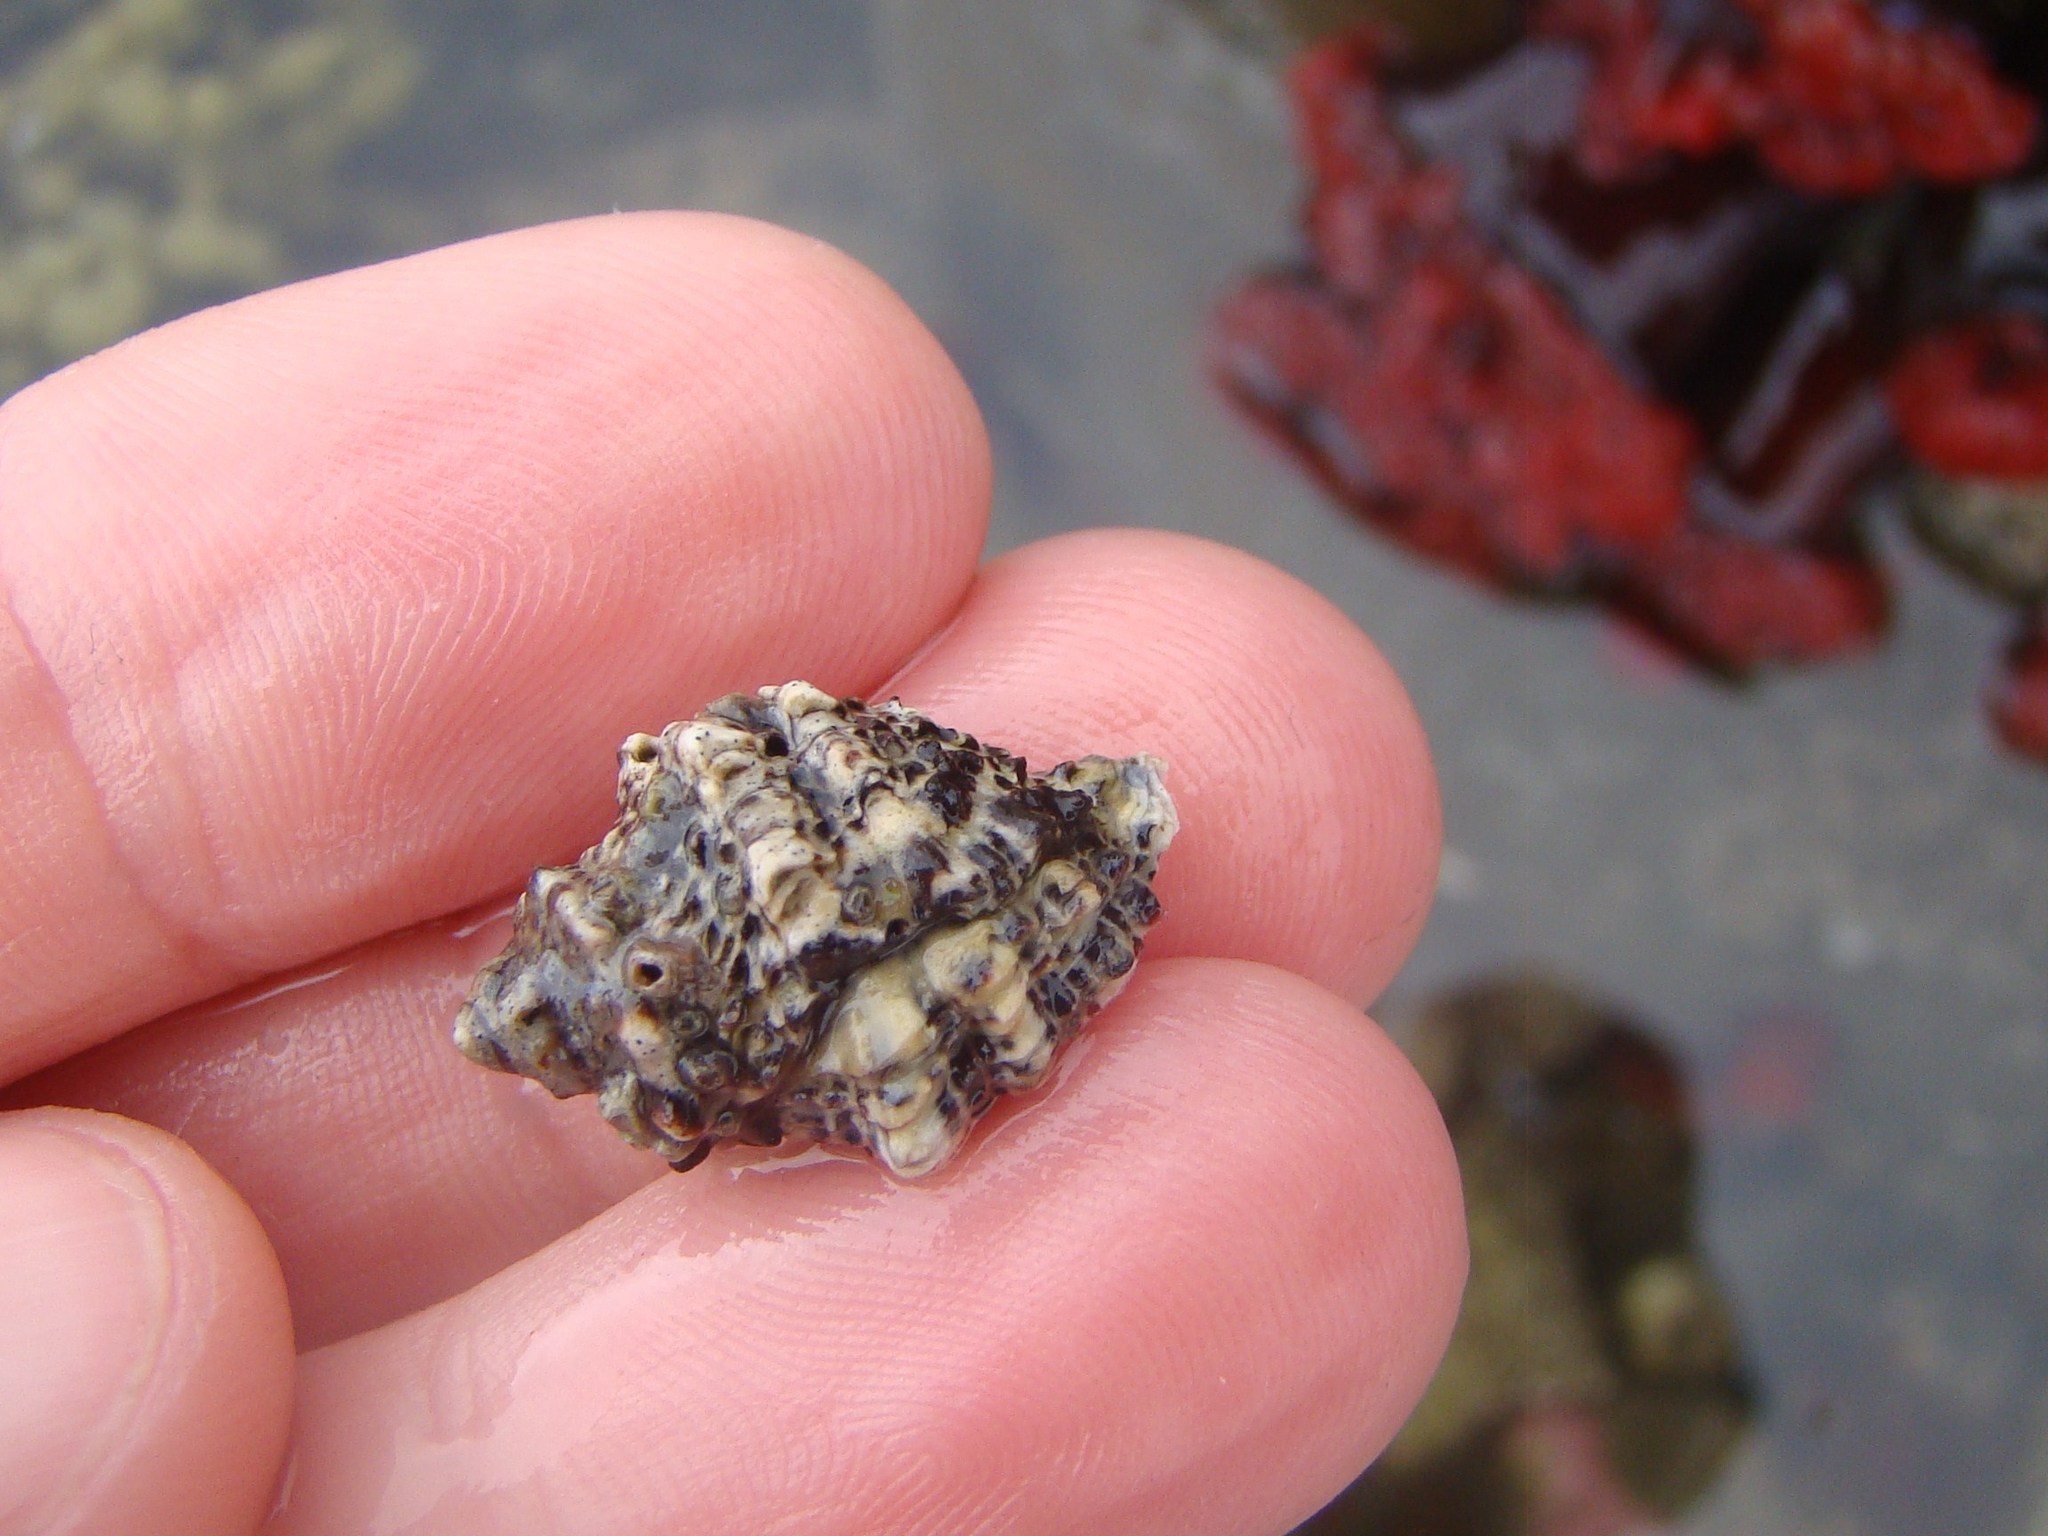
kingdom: Animalia
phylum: Mollusca
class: Gastropoda
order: Neogastropoda
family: Muricidae
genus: Haustrum
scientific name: Haustrum scobina
